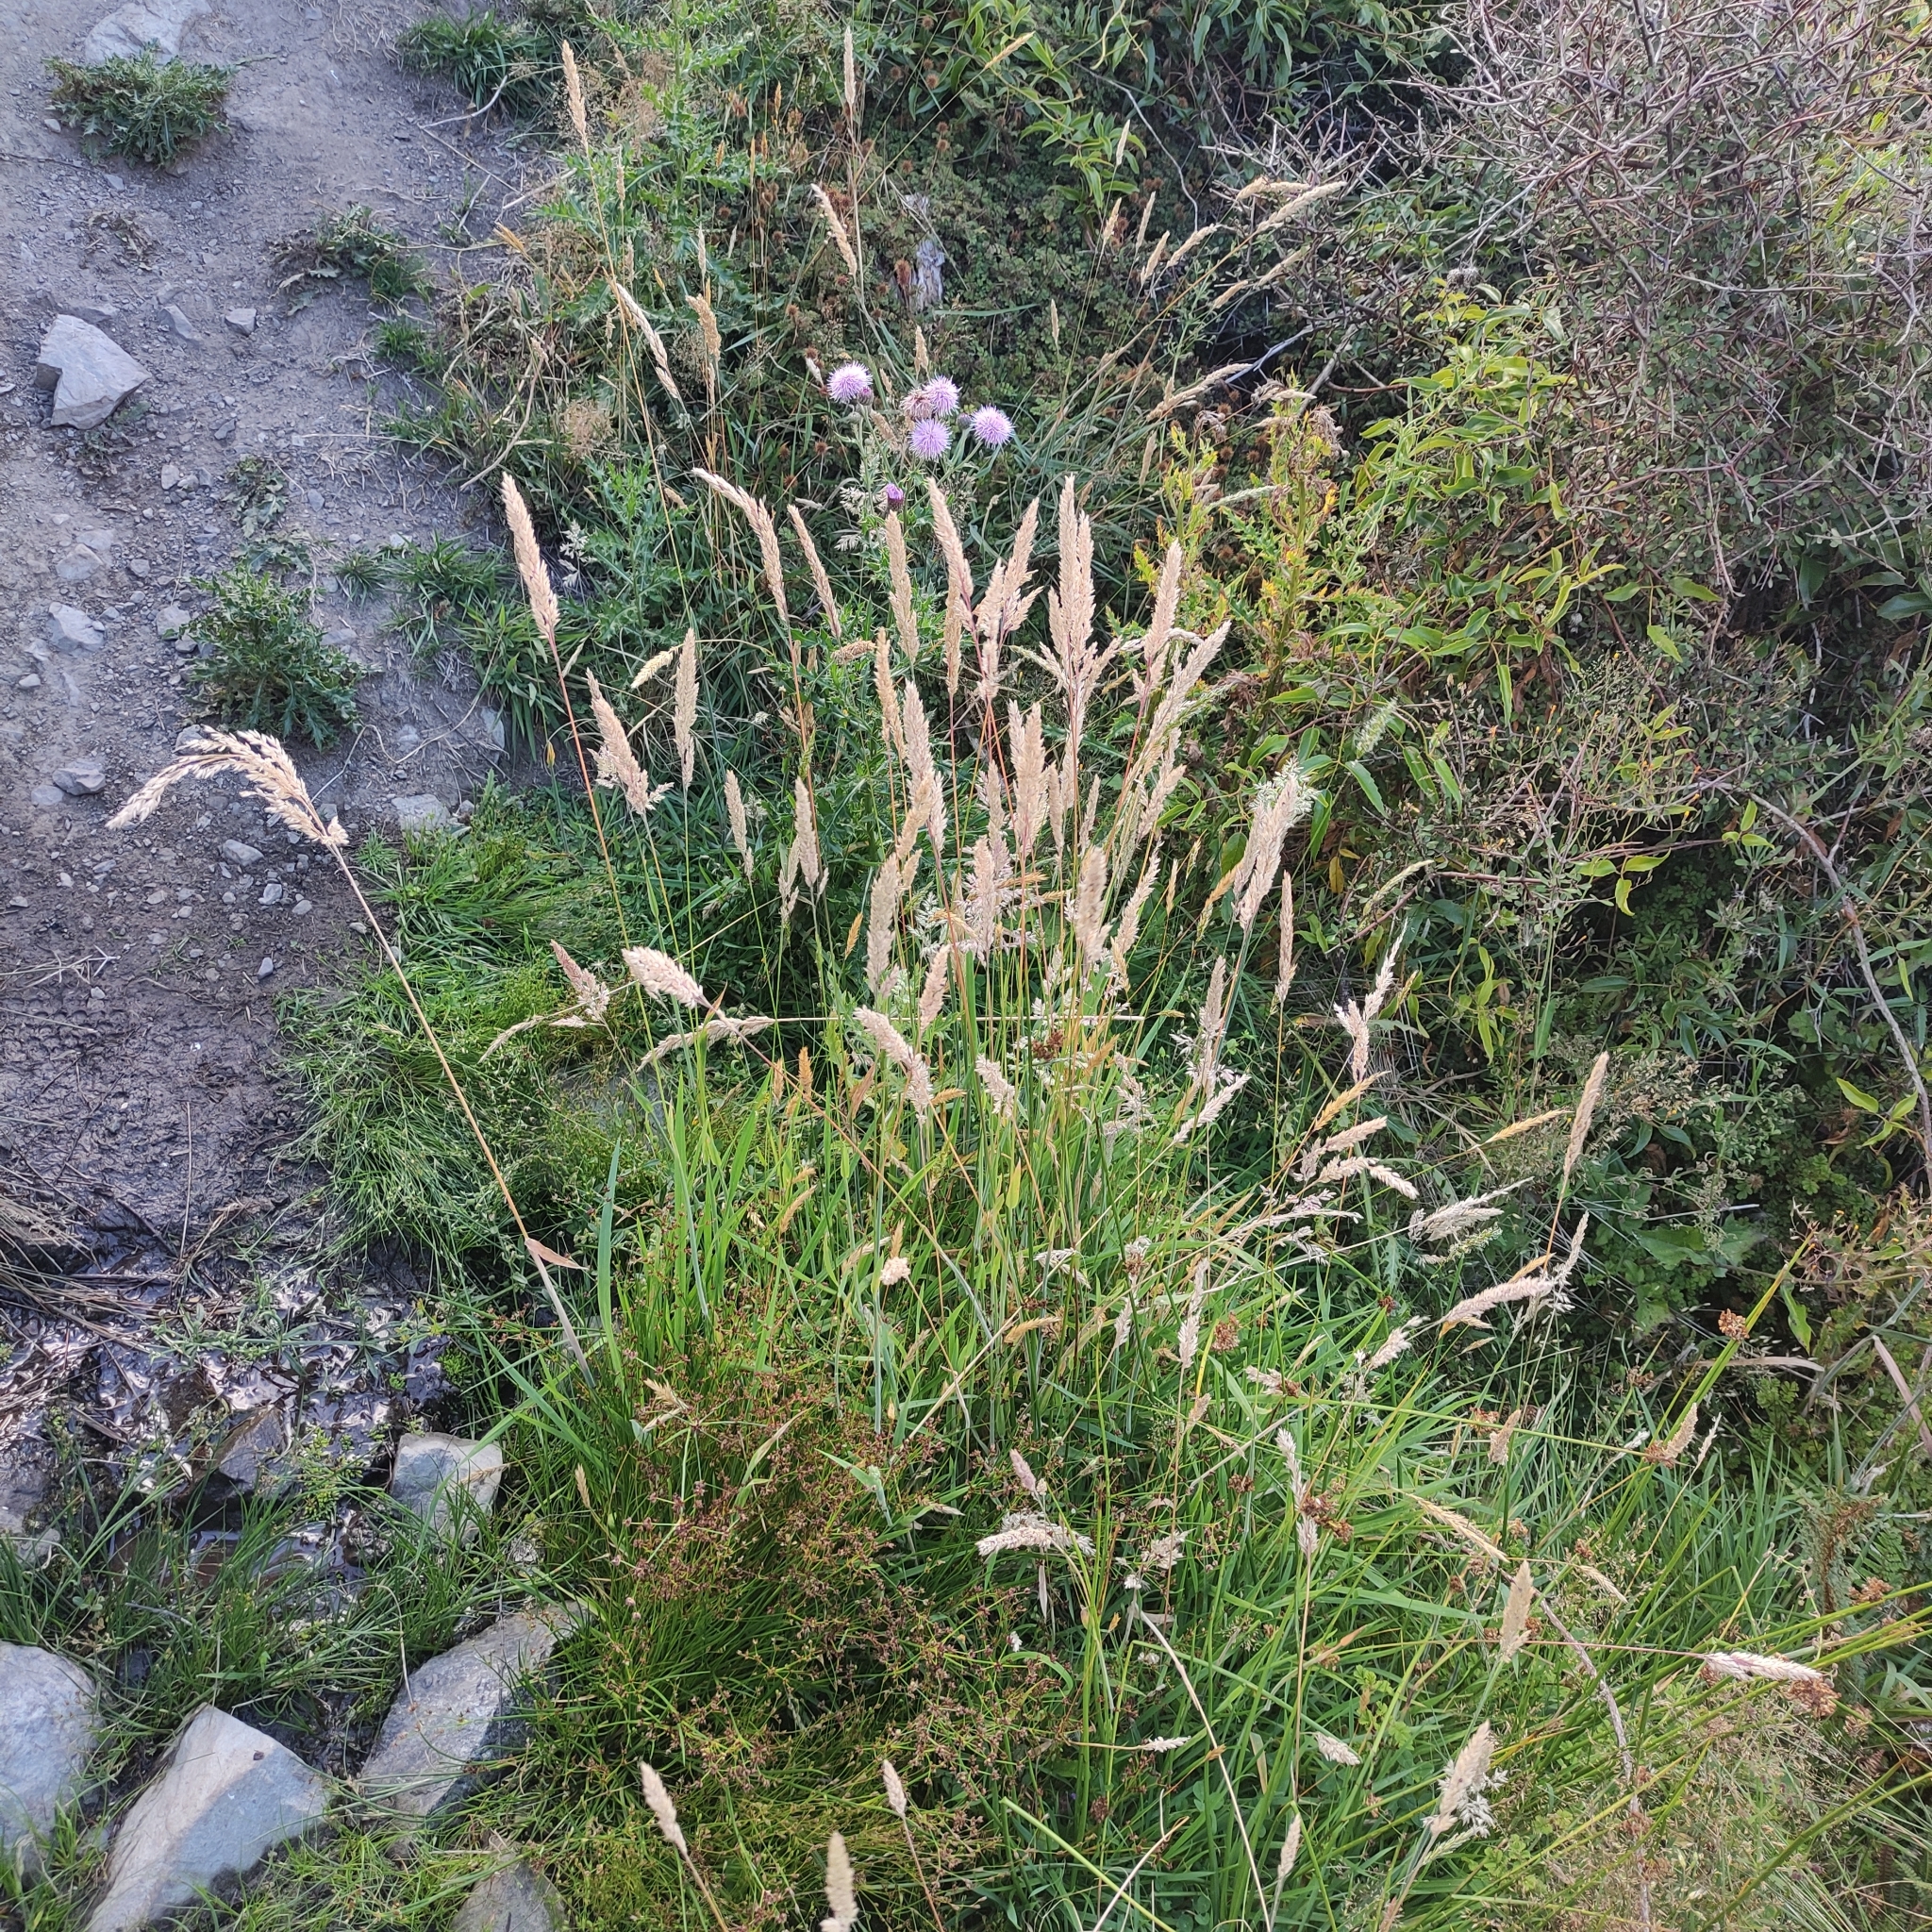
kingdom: Plantae
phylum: Tracheophyta
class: Liliopsida
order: Poales
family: Poaceae
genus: Holcus
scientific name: Holcus lanatus
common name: Yorkshire-fog
